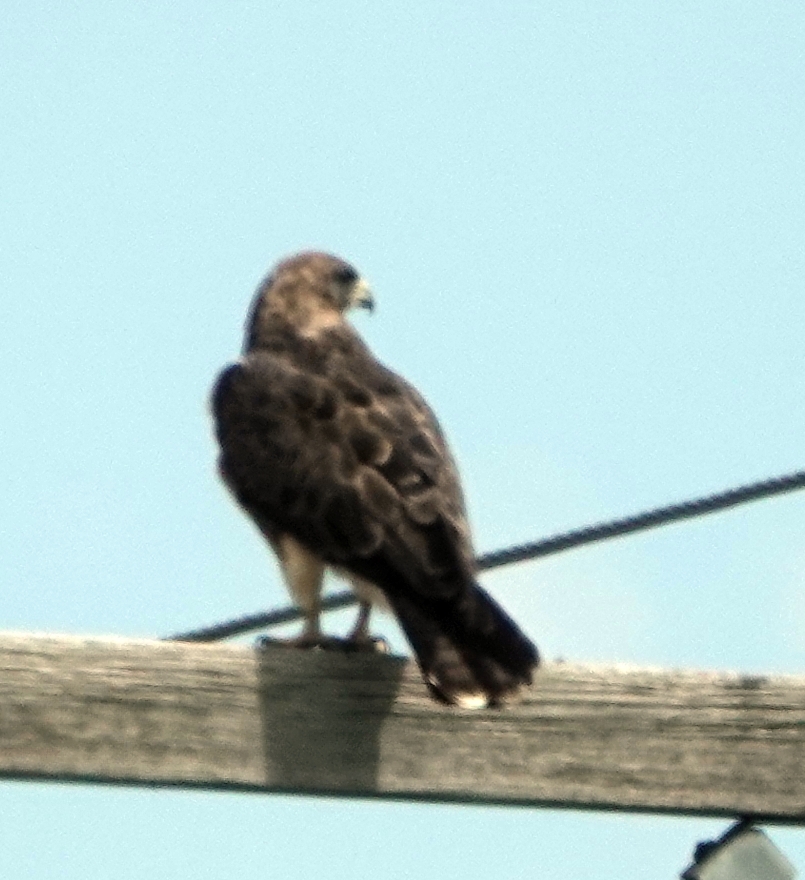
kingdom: Animalia
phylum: Chordata
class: Aves
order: Accipitriformes
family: Accipitridae
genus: Buteo
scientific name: Buteo swainsoni
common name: Swainson's hawk
